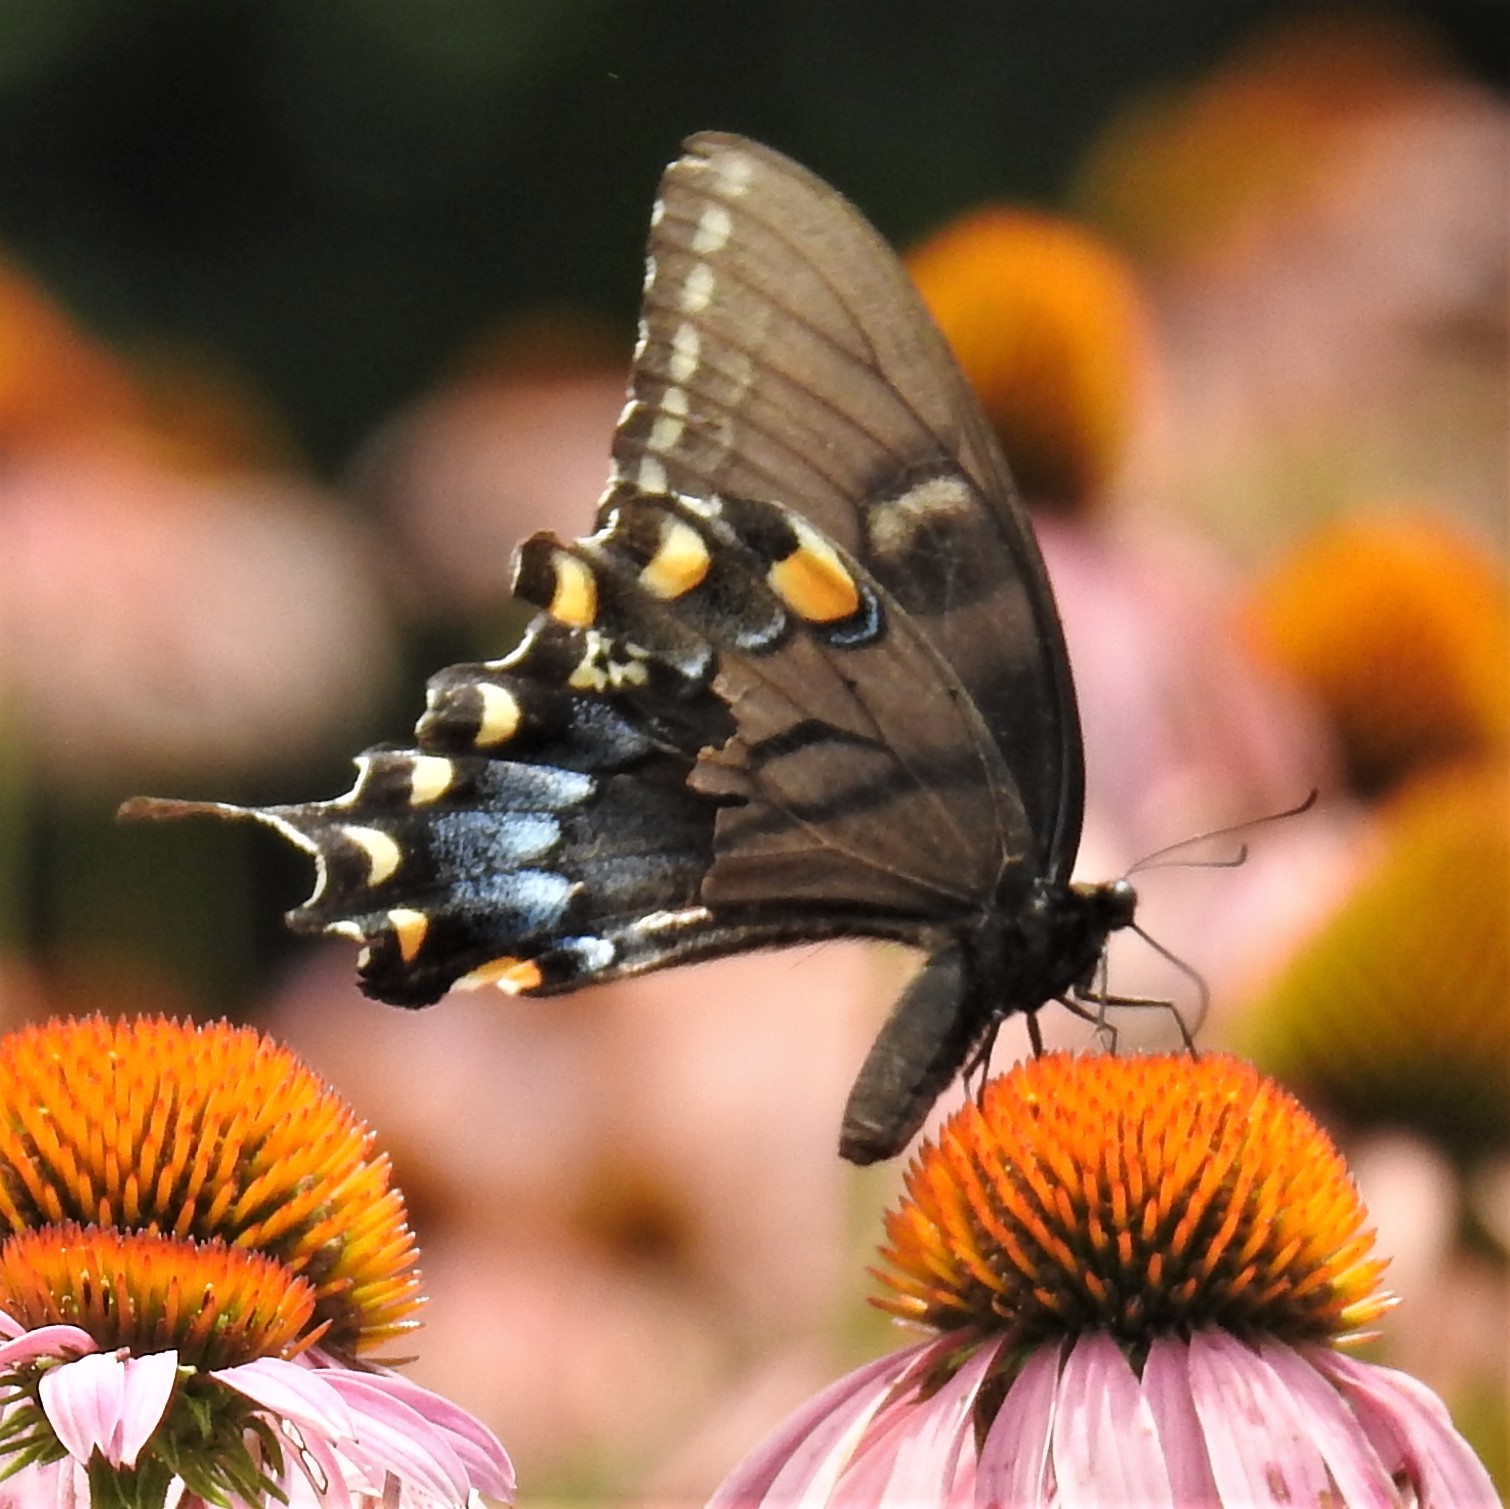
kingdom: Animalia
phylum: Arthropoda
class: Insecta
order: Lepidoptera
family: Papilionidae
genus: Papilio
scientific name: Papilio glaucus
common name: Tiger swallowtail
